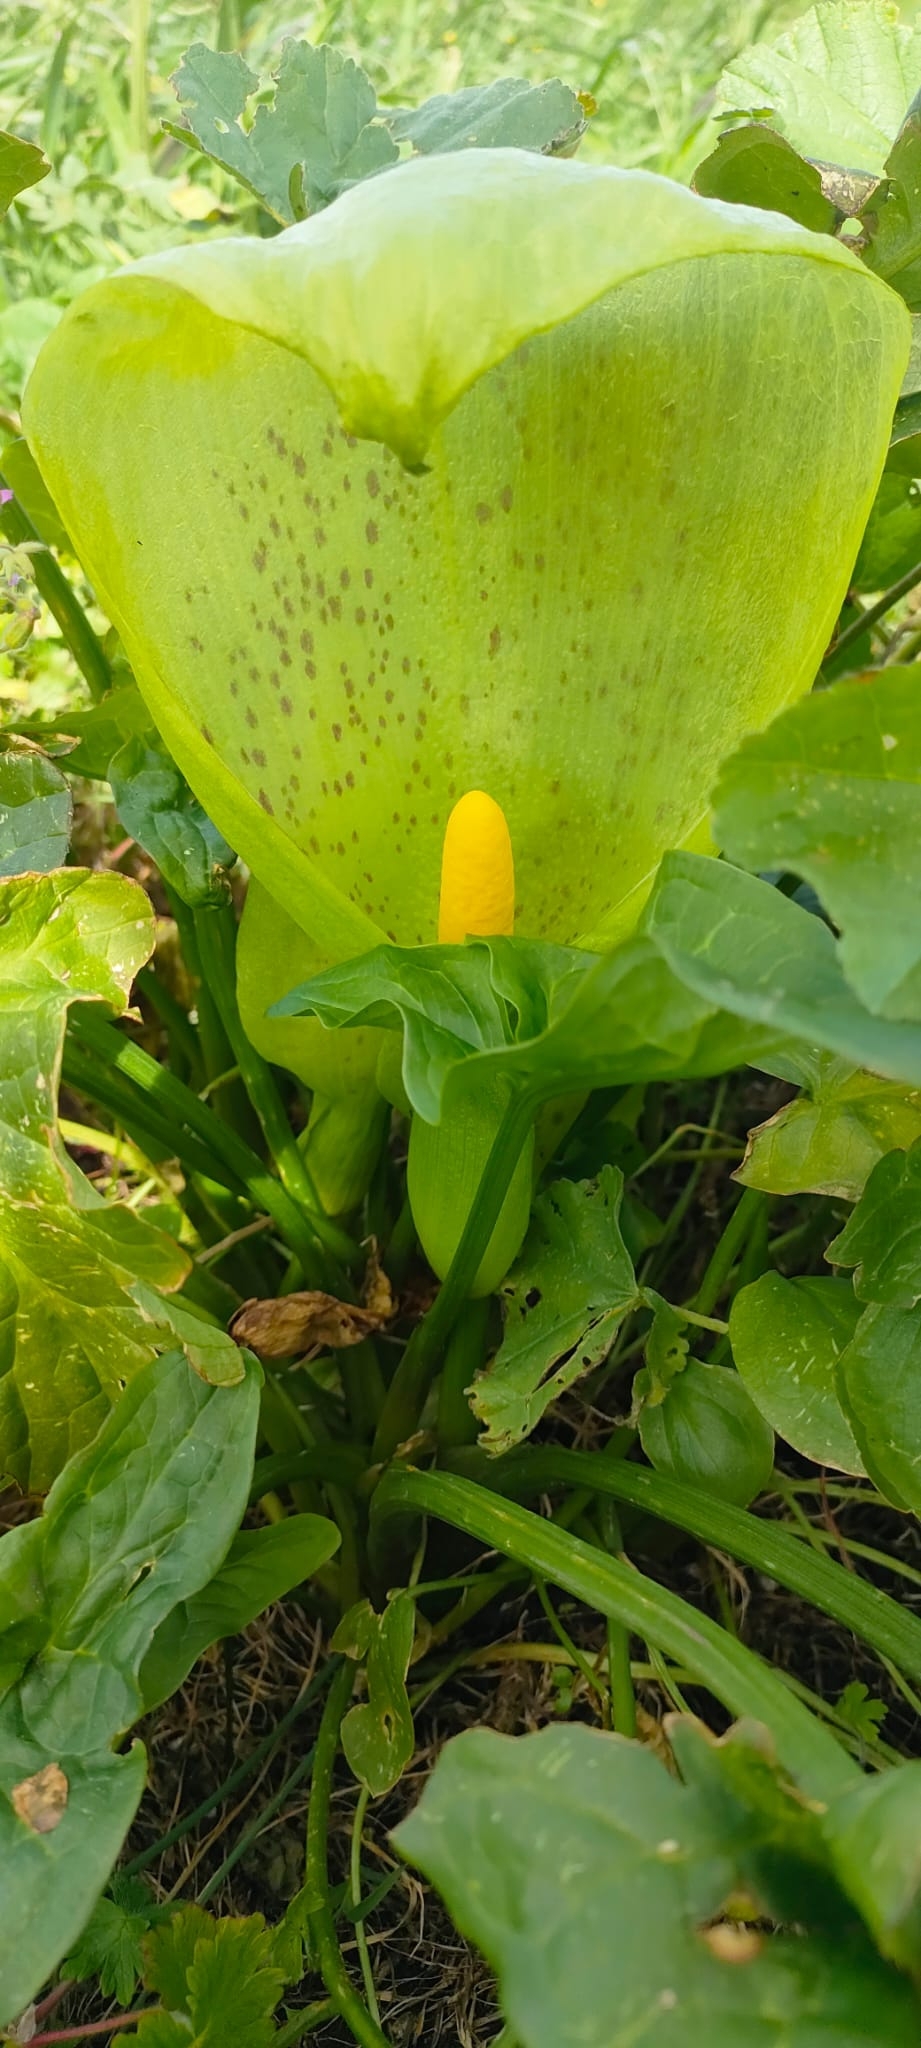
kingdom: Plantae
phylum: Tracheophyta
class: Liliopsida
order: Alismatales
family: Araceae
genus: Arum
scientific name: Arum italicum
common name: Italian lords-and-ladies
